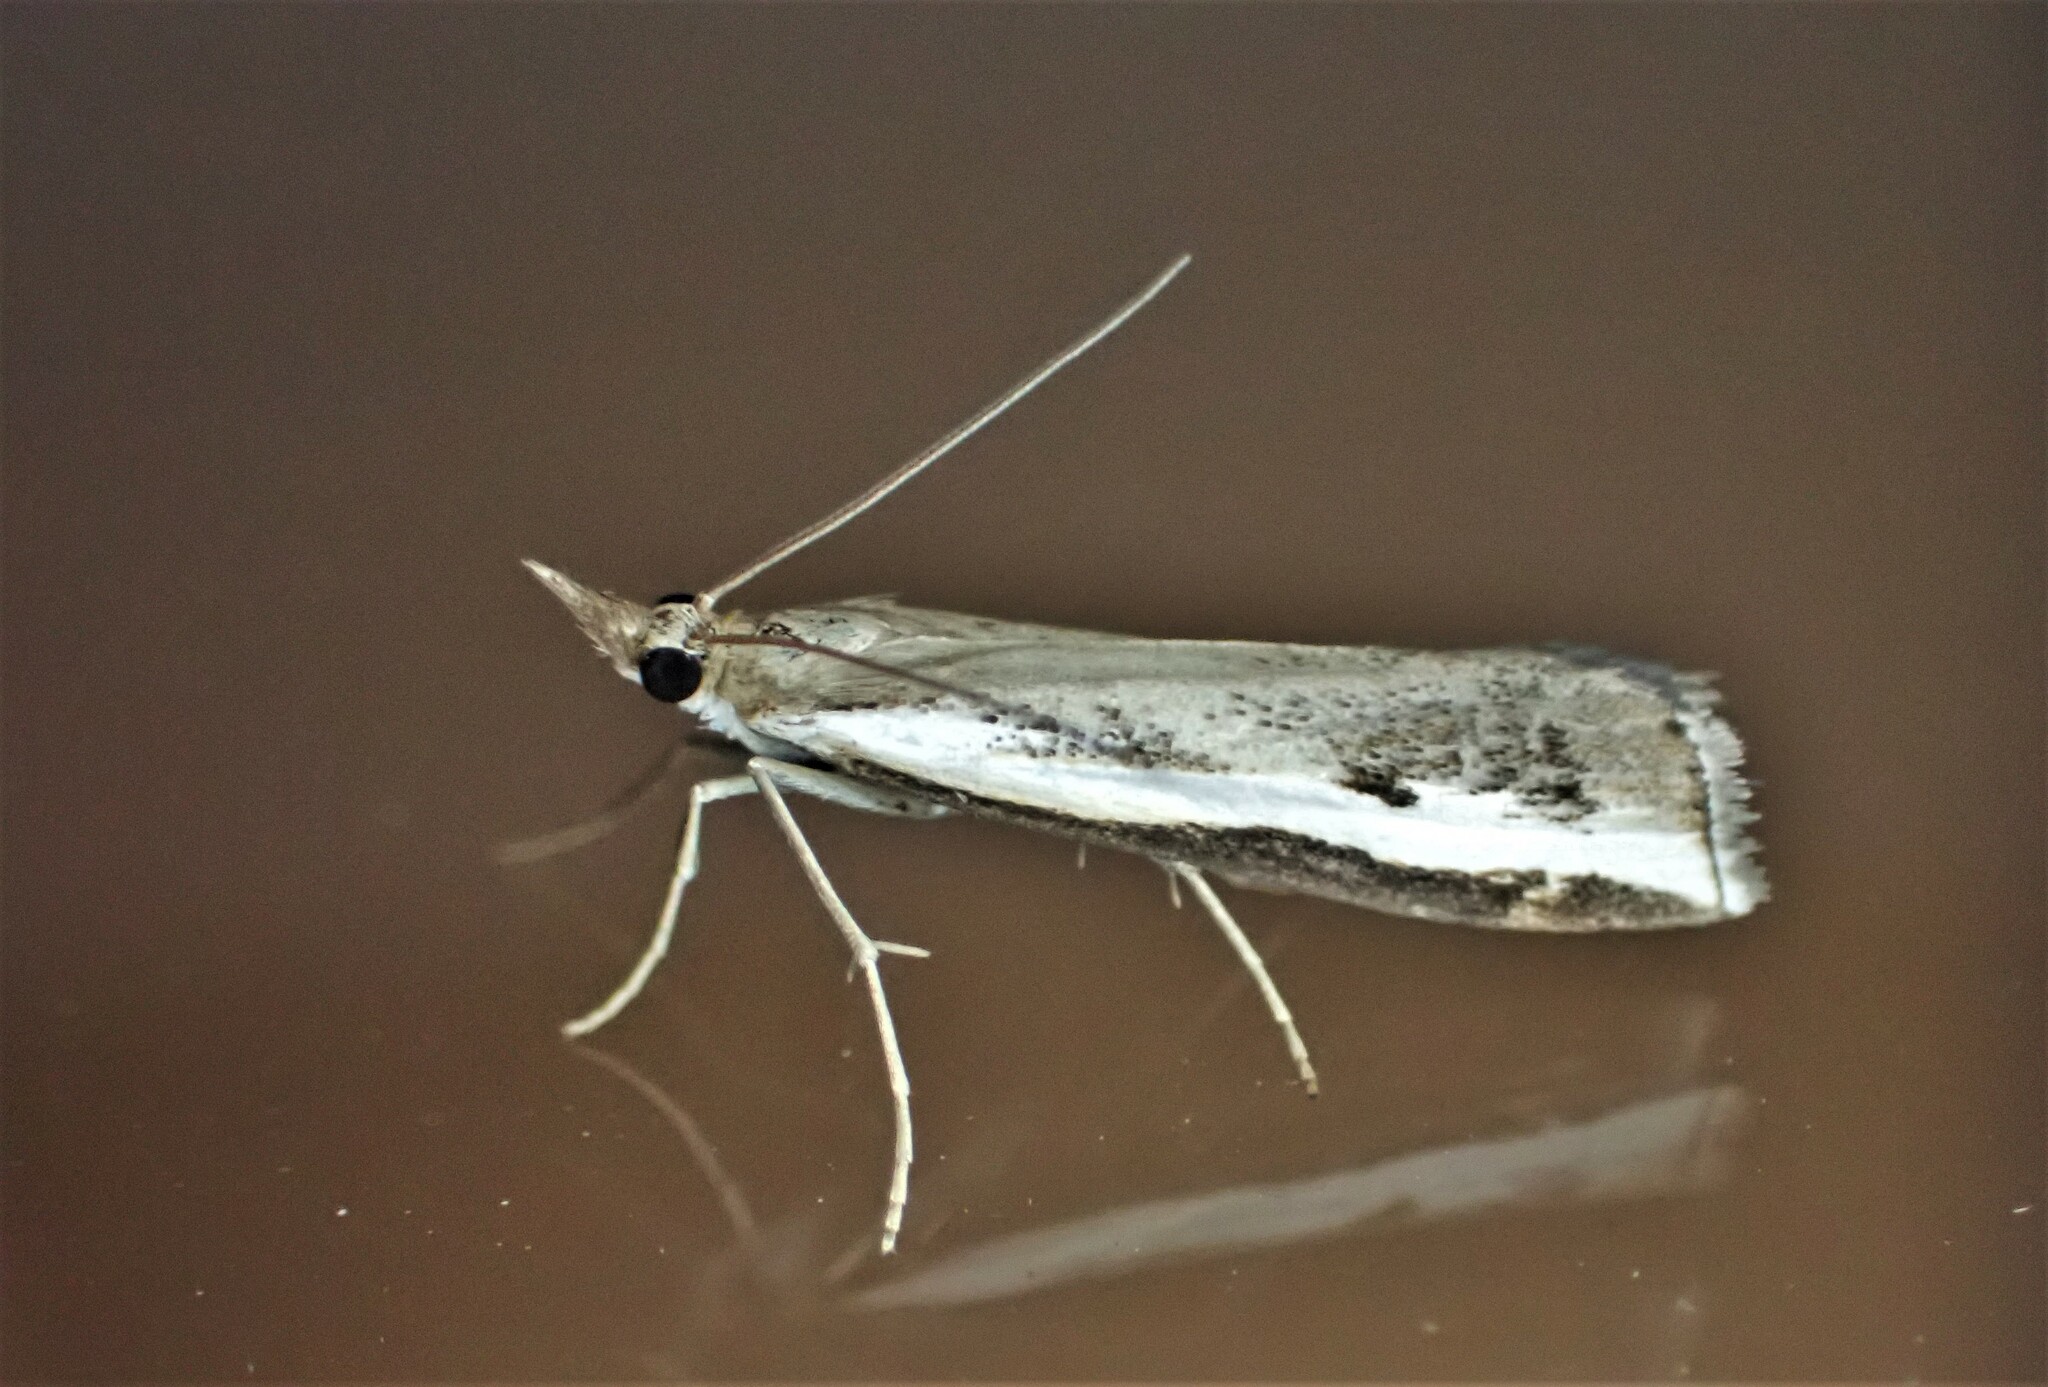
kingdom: Animalia
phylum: Arthropoda
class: Insecta
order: Lepidoptera
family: Crambidae
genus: Orocrambus
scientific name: Orocrambus flexuosellus
